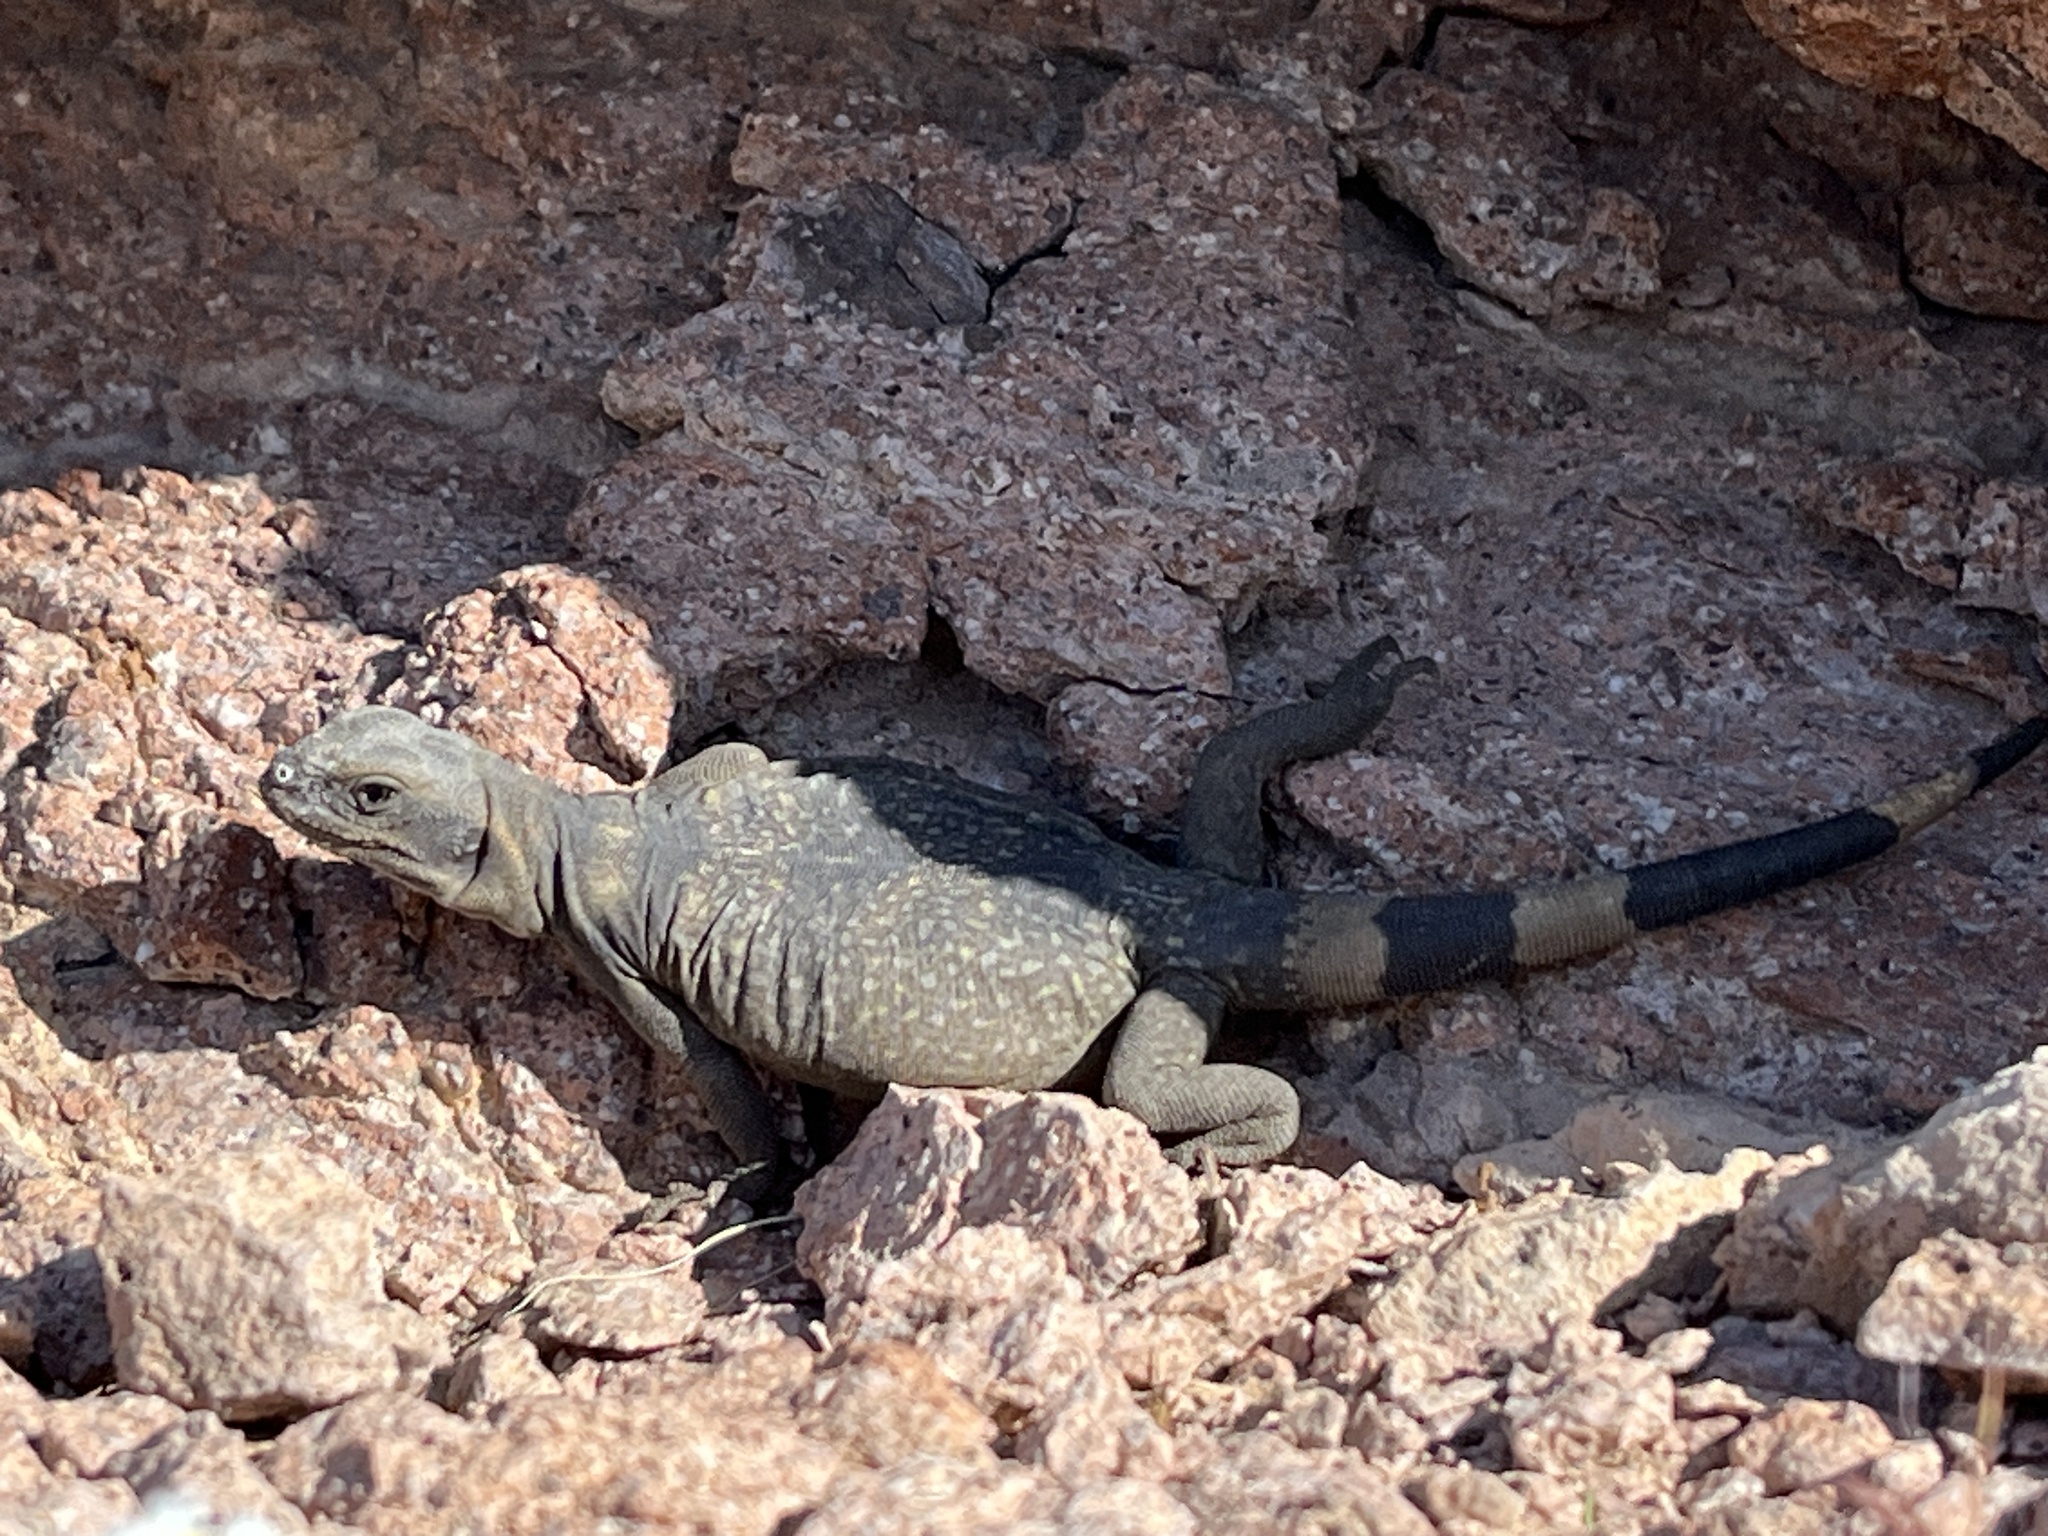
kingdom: Animalia
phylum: Chordata
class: Squamata
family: Iguanidae
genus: Sauromalus
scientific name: Sauromalus ater
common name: Northern chuckwalla
